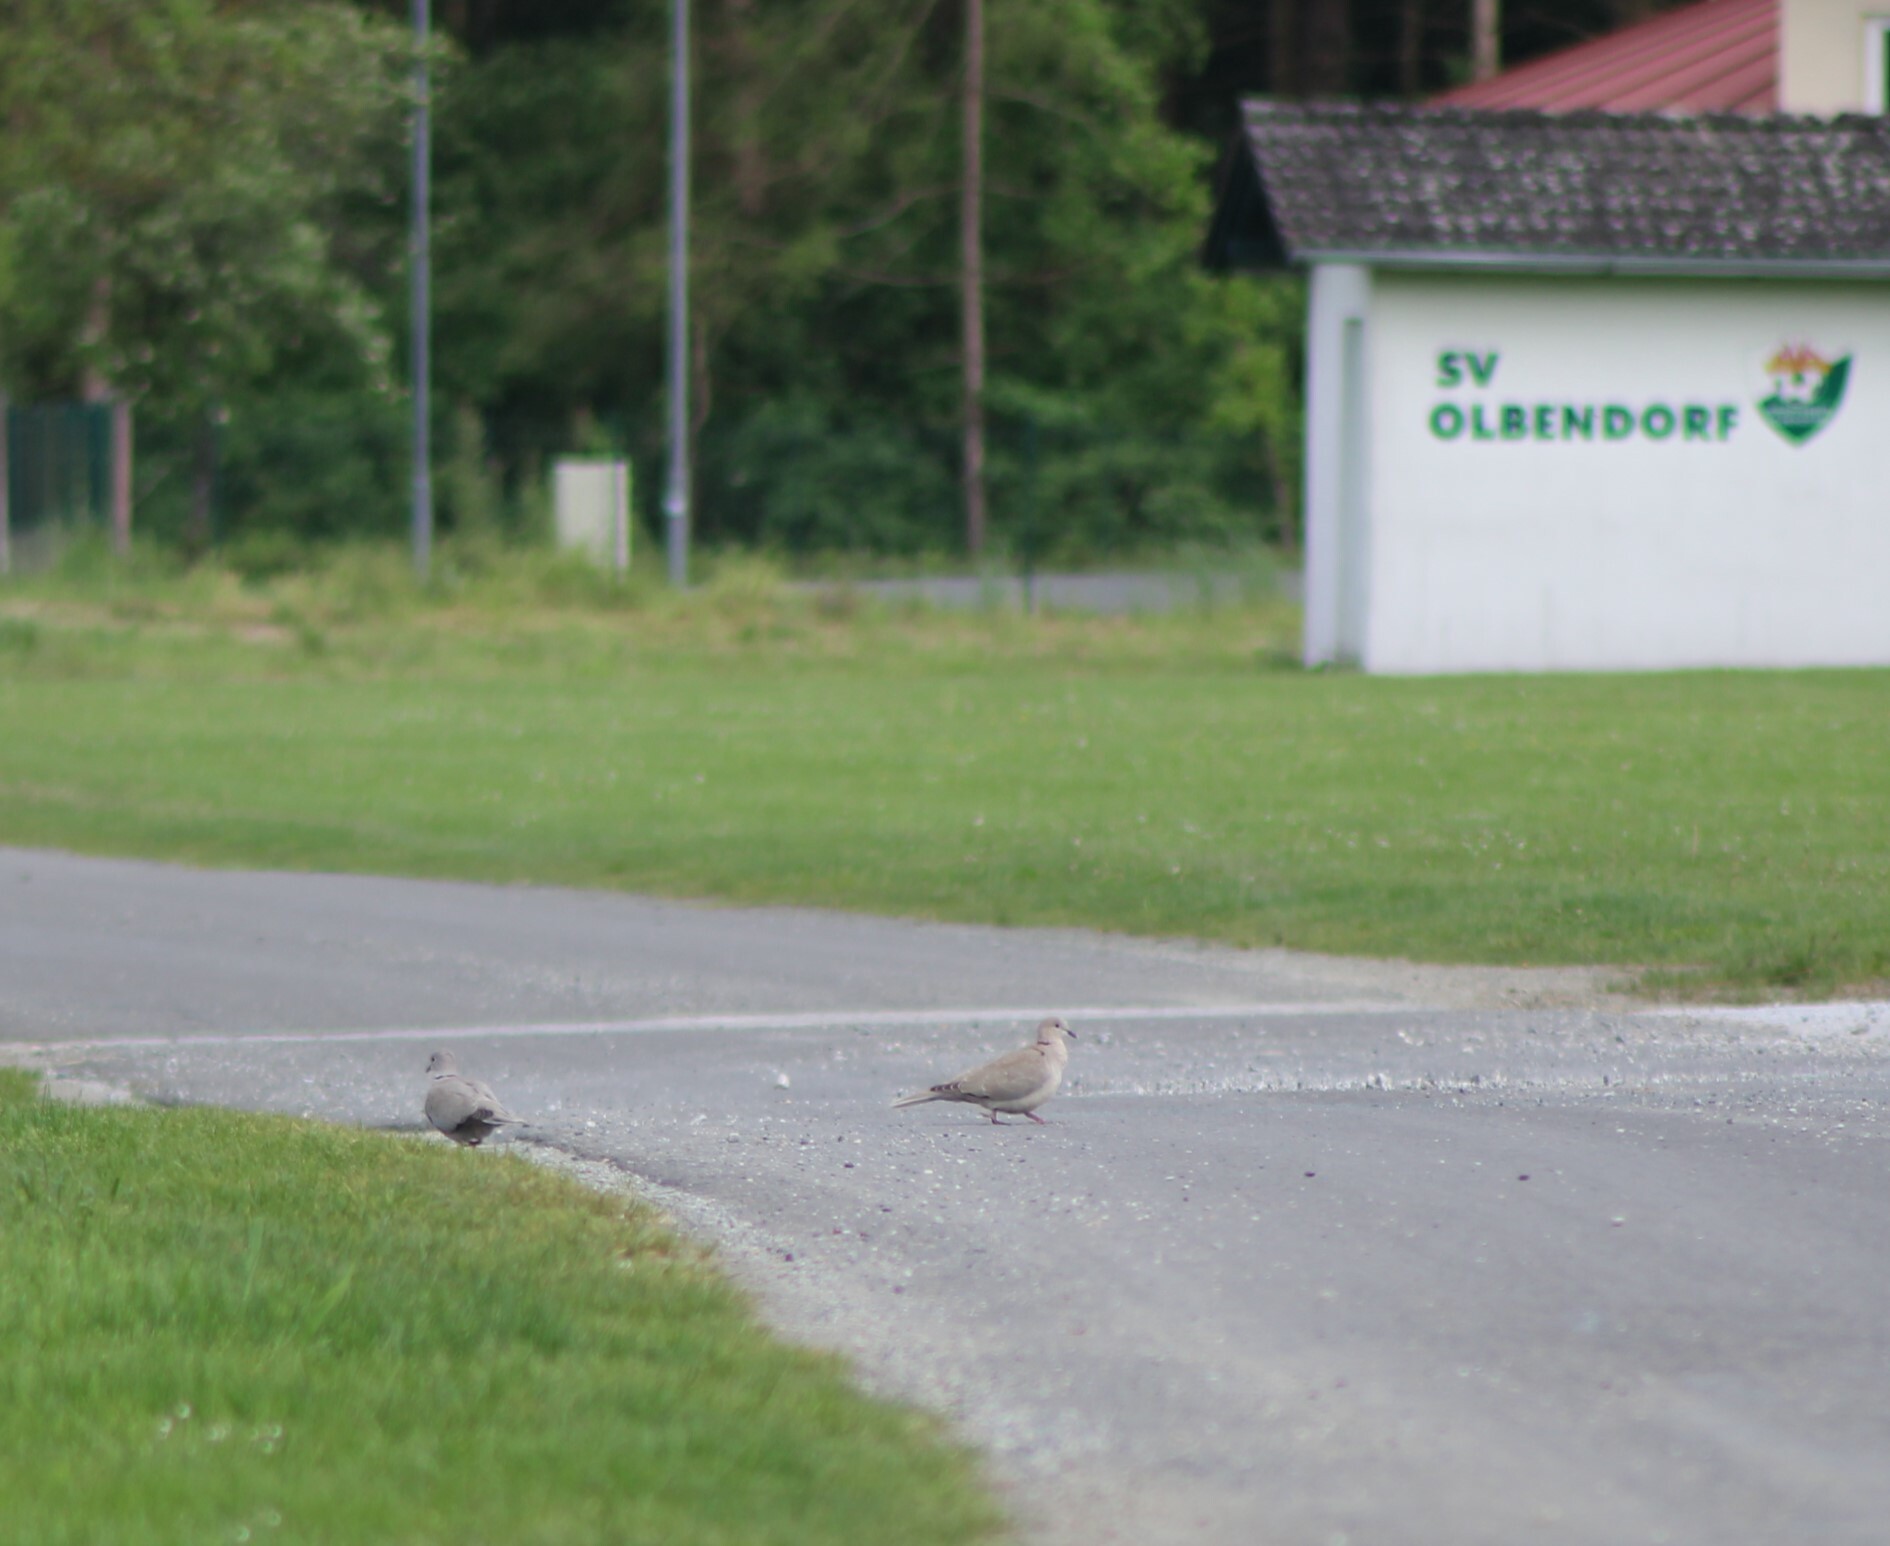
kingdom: Animalia
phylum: Chordata
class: Aves
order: Columbiformes
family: Columbidae
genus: Streptopelia
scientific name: Streptopelia decaocto
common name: Eurasian collared dove
